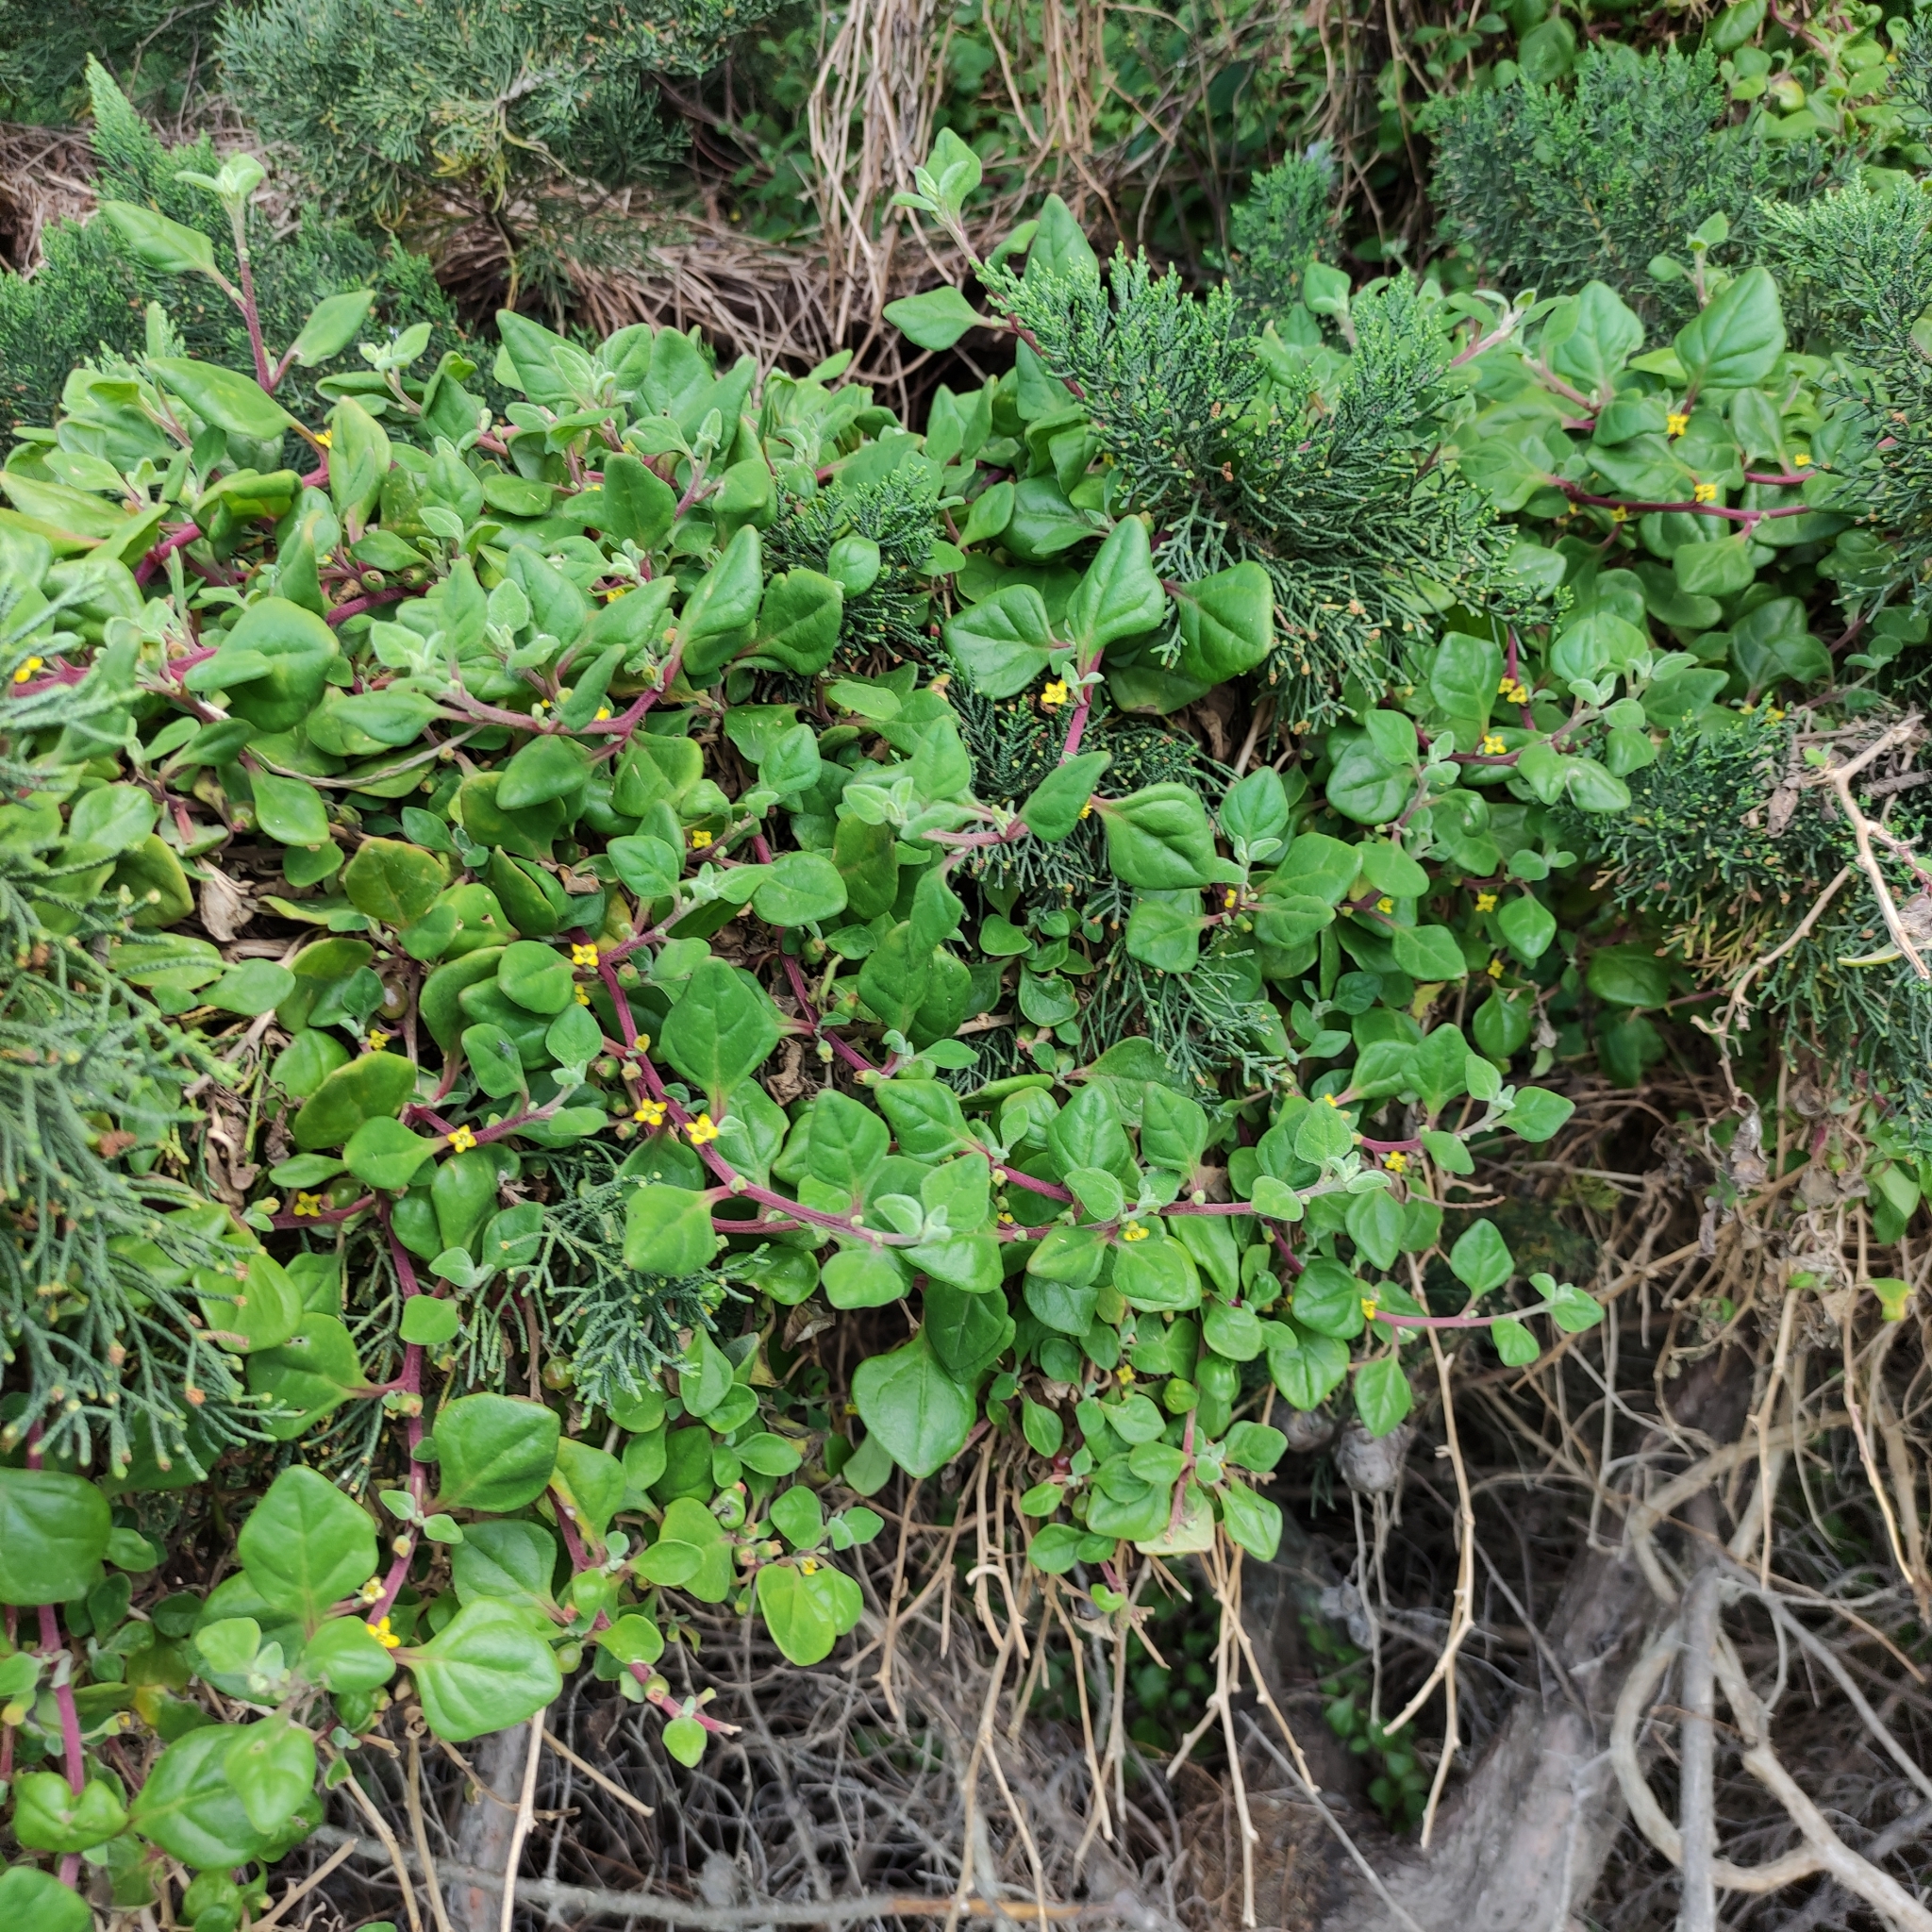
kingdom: Plantae
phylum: Tracheophyta
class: Magnoliopsida
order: Caryophyllales
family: Aizoaceae
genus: Tetragonia
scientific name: Tetragonia implexicoma
